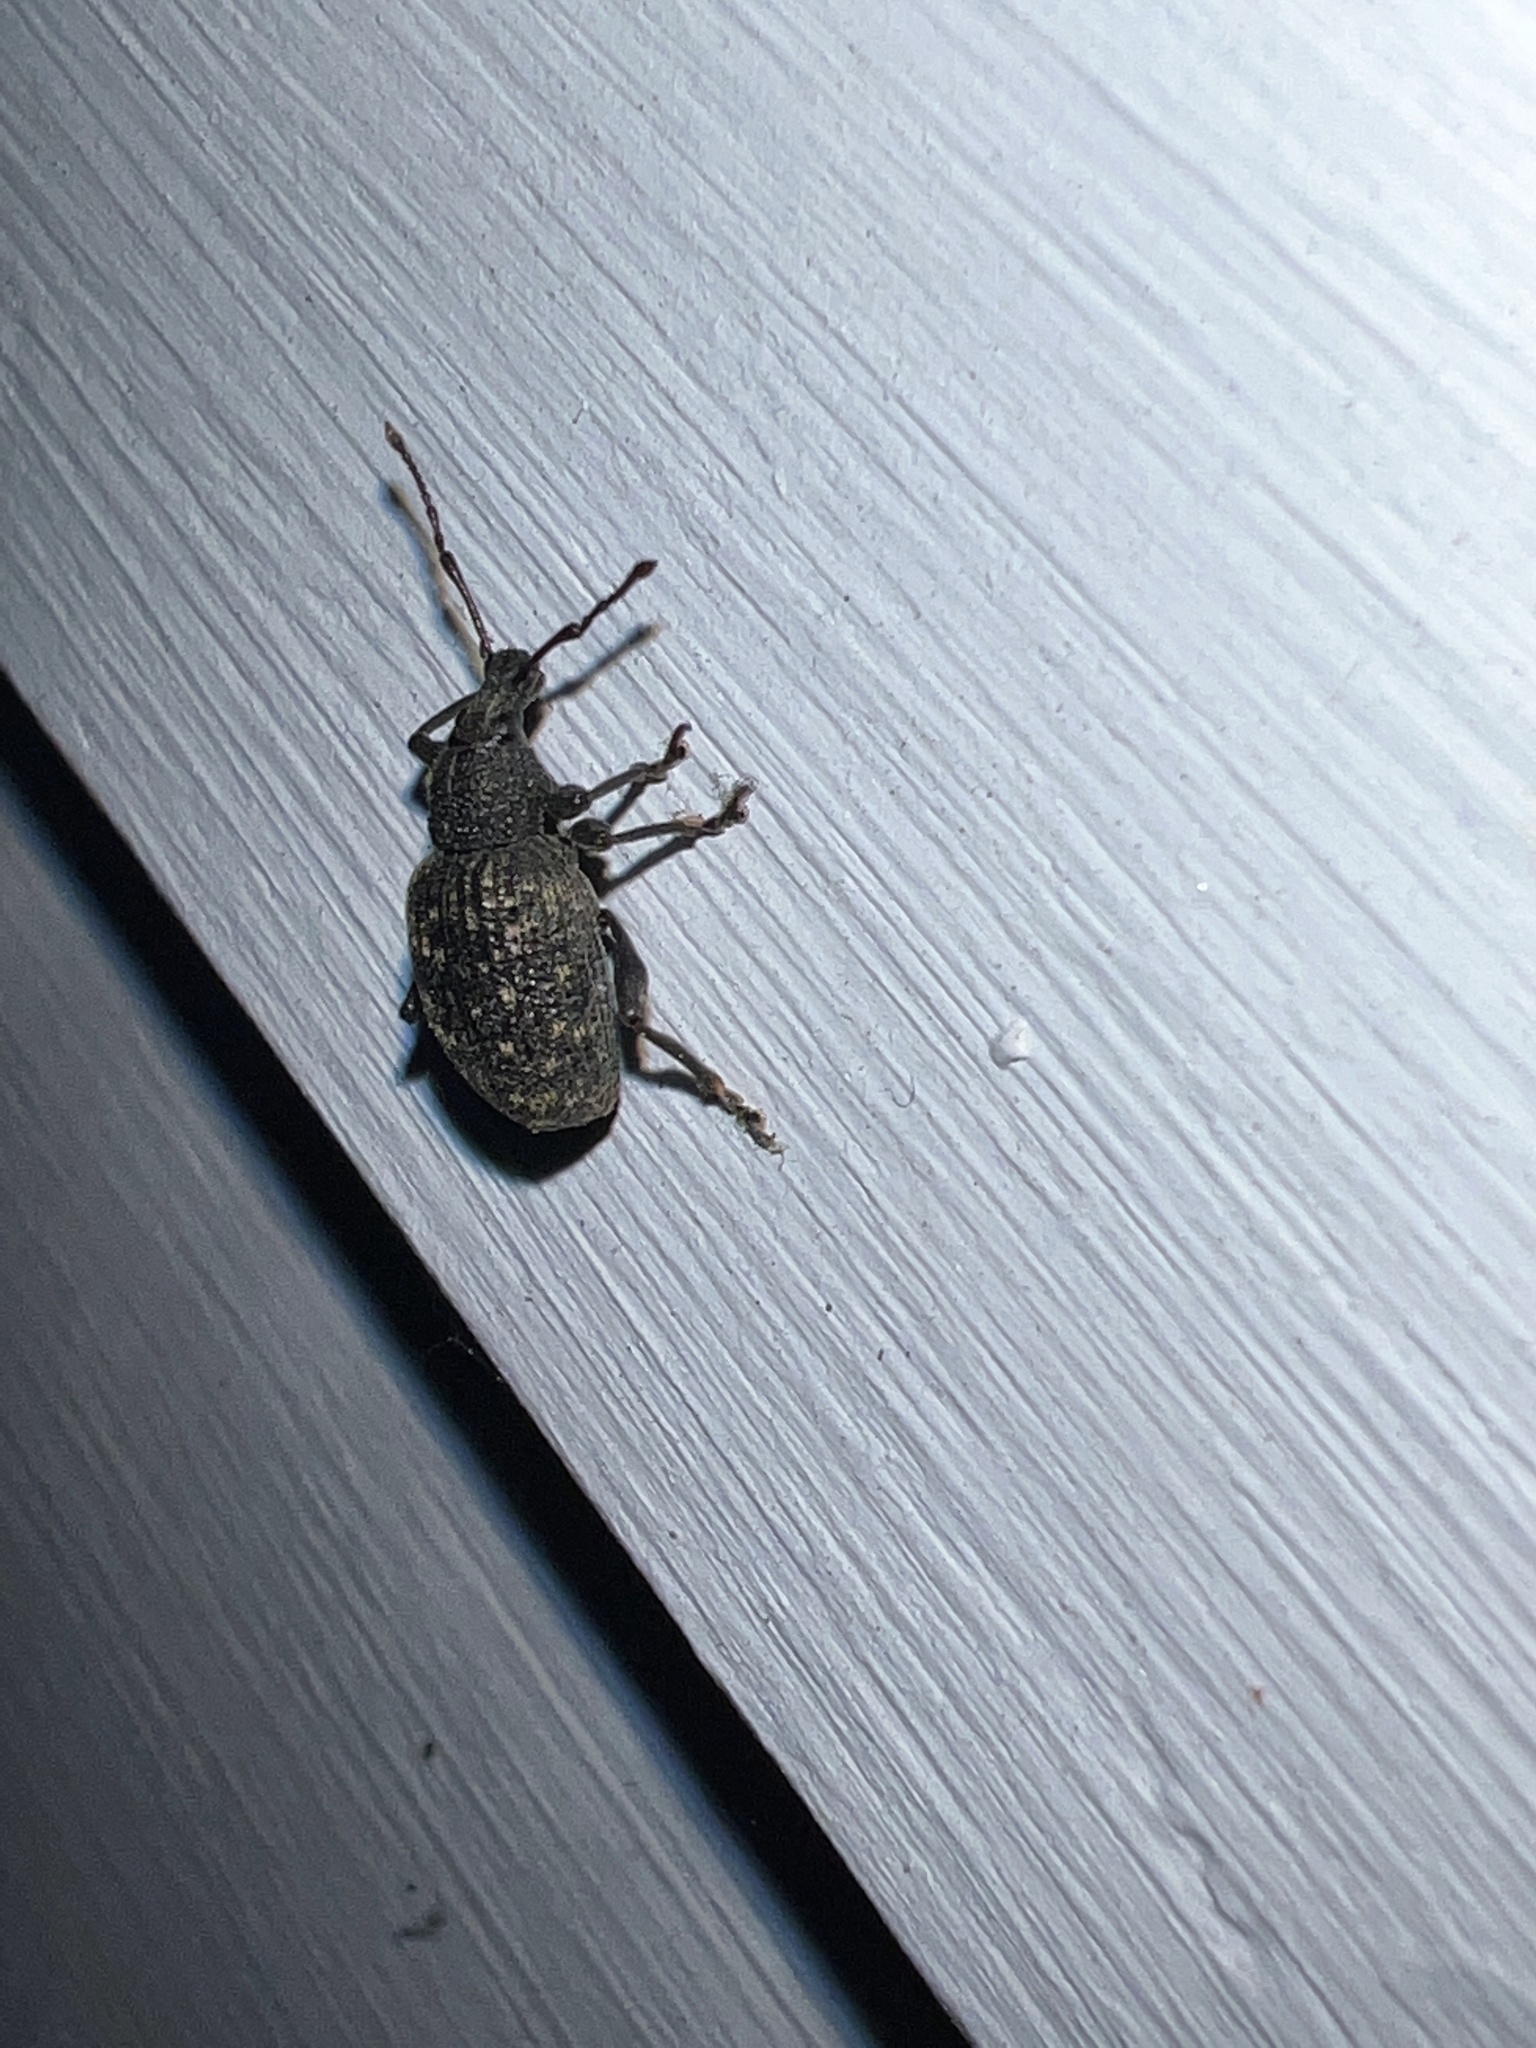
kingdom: Animalia
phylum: Arthropoda
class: Insecta
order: Coleoptera
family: Curculionidae
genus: Otiorhynchus
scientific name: Otiorhynchus sulcatus
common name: Black vine weevil
